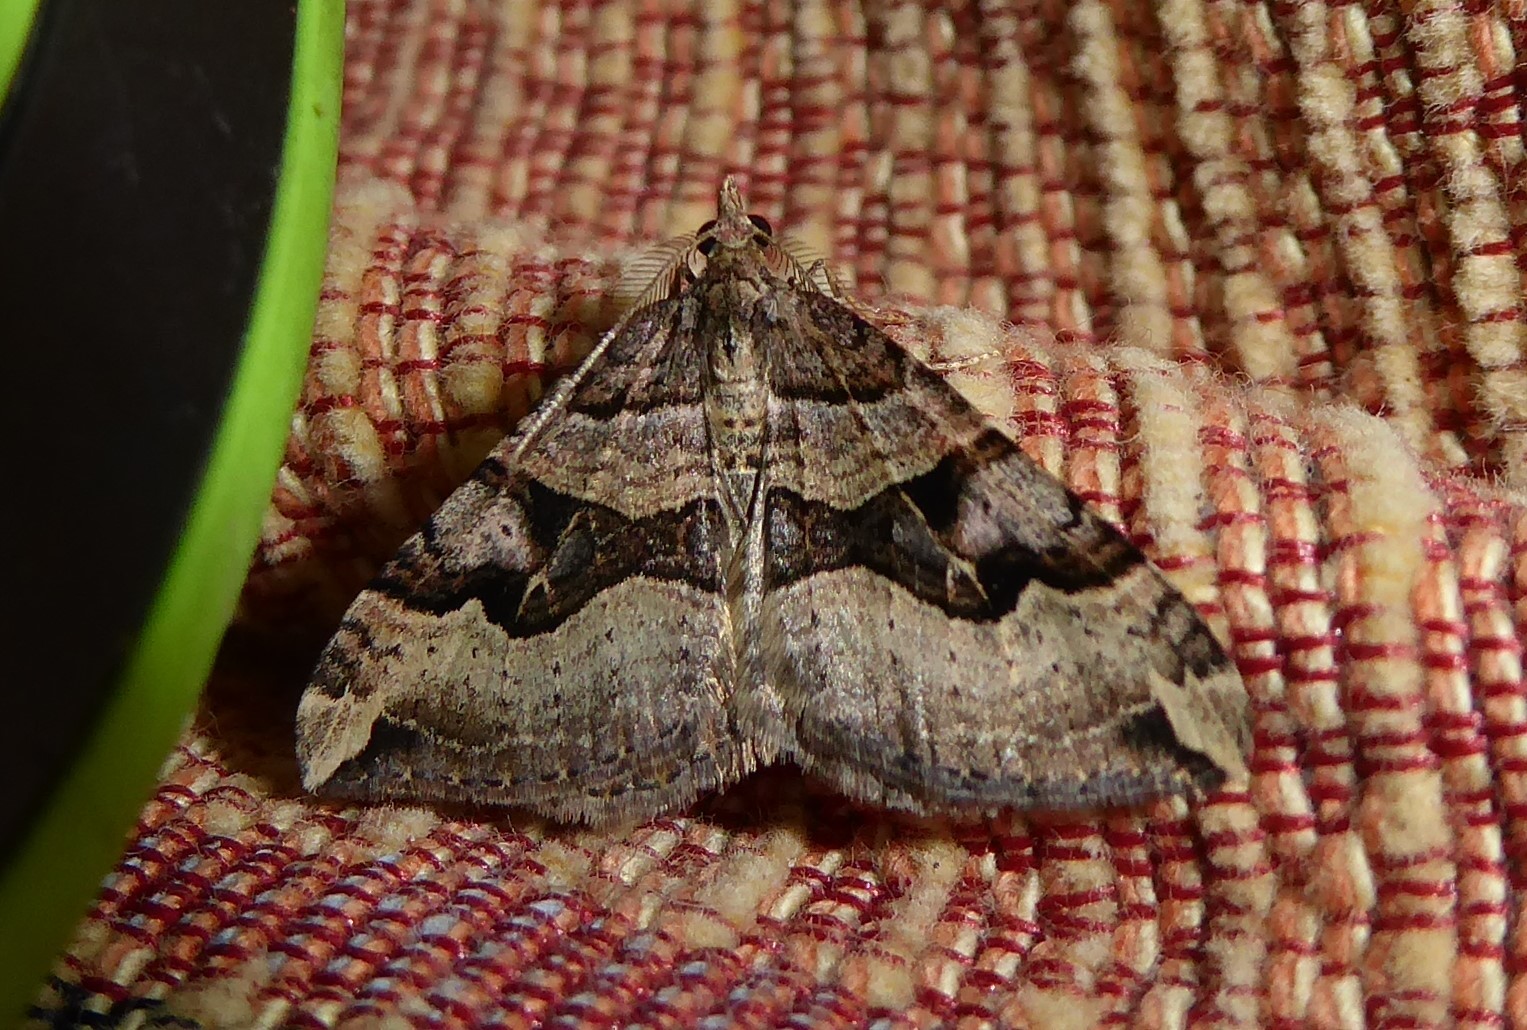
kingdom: Animalia
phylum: Arthropoda
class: Insecta
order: Lepidoptera
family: Geometridae
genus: Xanthorhoe
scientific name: Xanthorhoe semifissata
